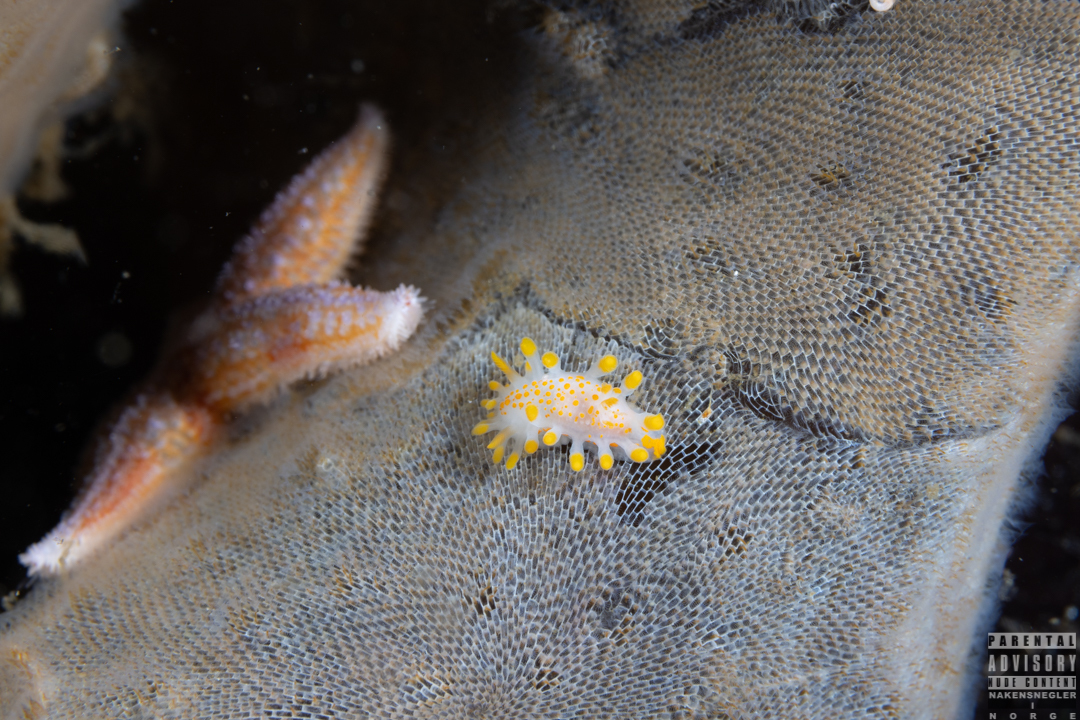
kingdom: Animalia
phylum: Mollusca
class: Gastropoda
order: Nudibranchia
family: Polyceridae
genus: Limacia
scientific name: Limacia clavigera
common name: Orange-clubbed sea slug
